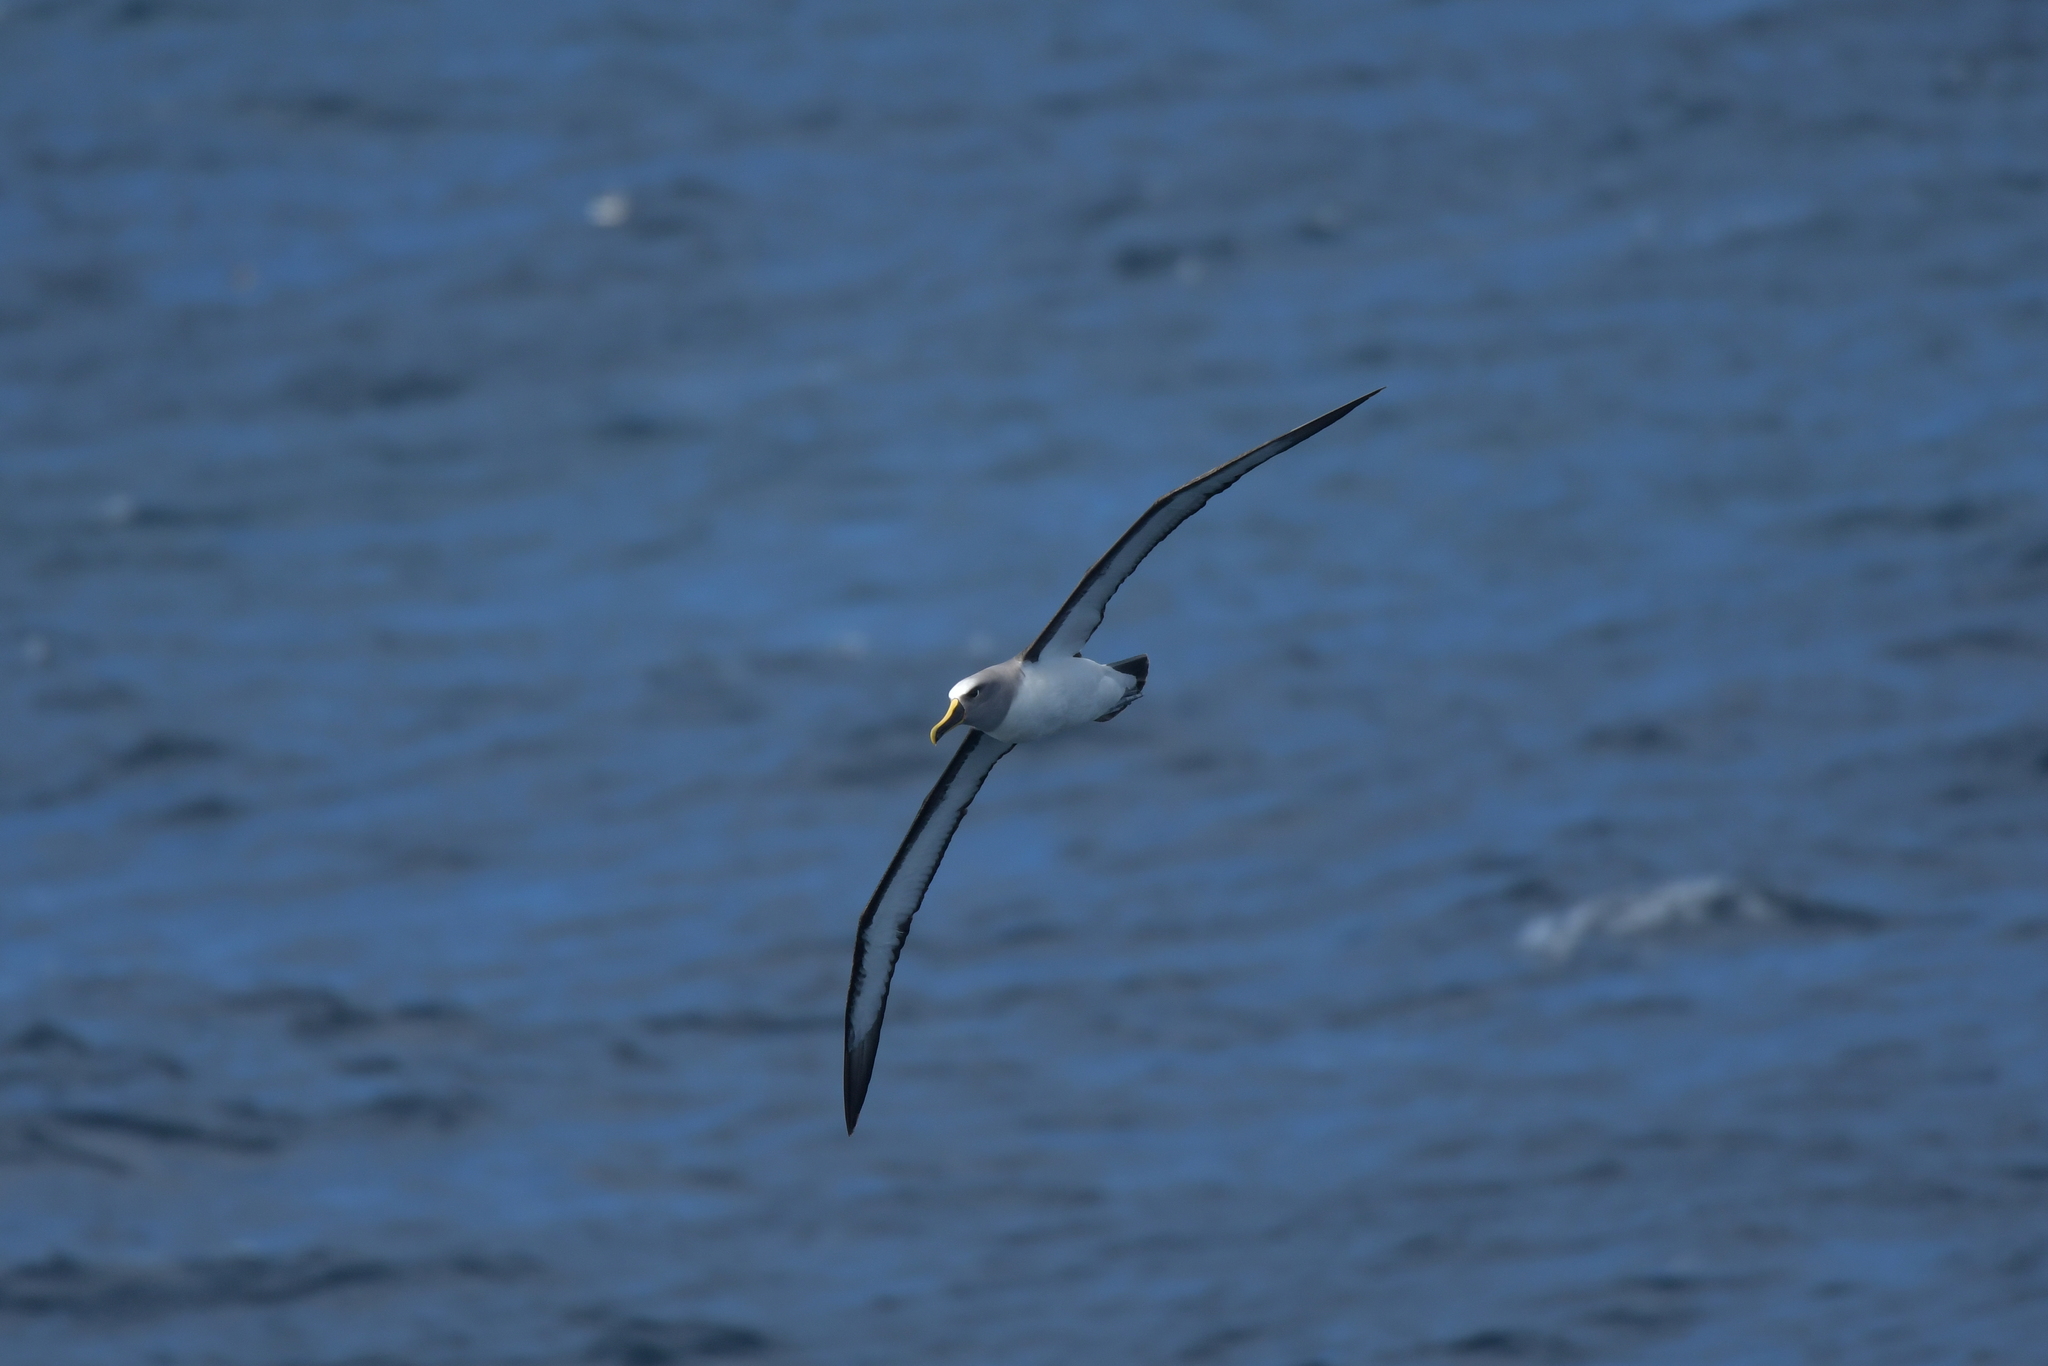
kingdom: Animalia
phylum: Chordata
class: Aves
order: Procellariiformes
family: Diomedeidae
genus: Thalassarche
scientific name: Thalassarche bulleri
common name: Buller's albatross
